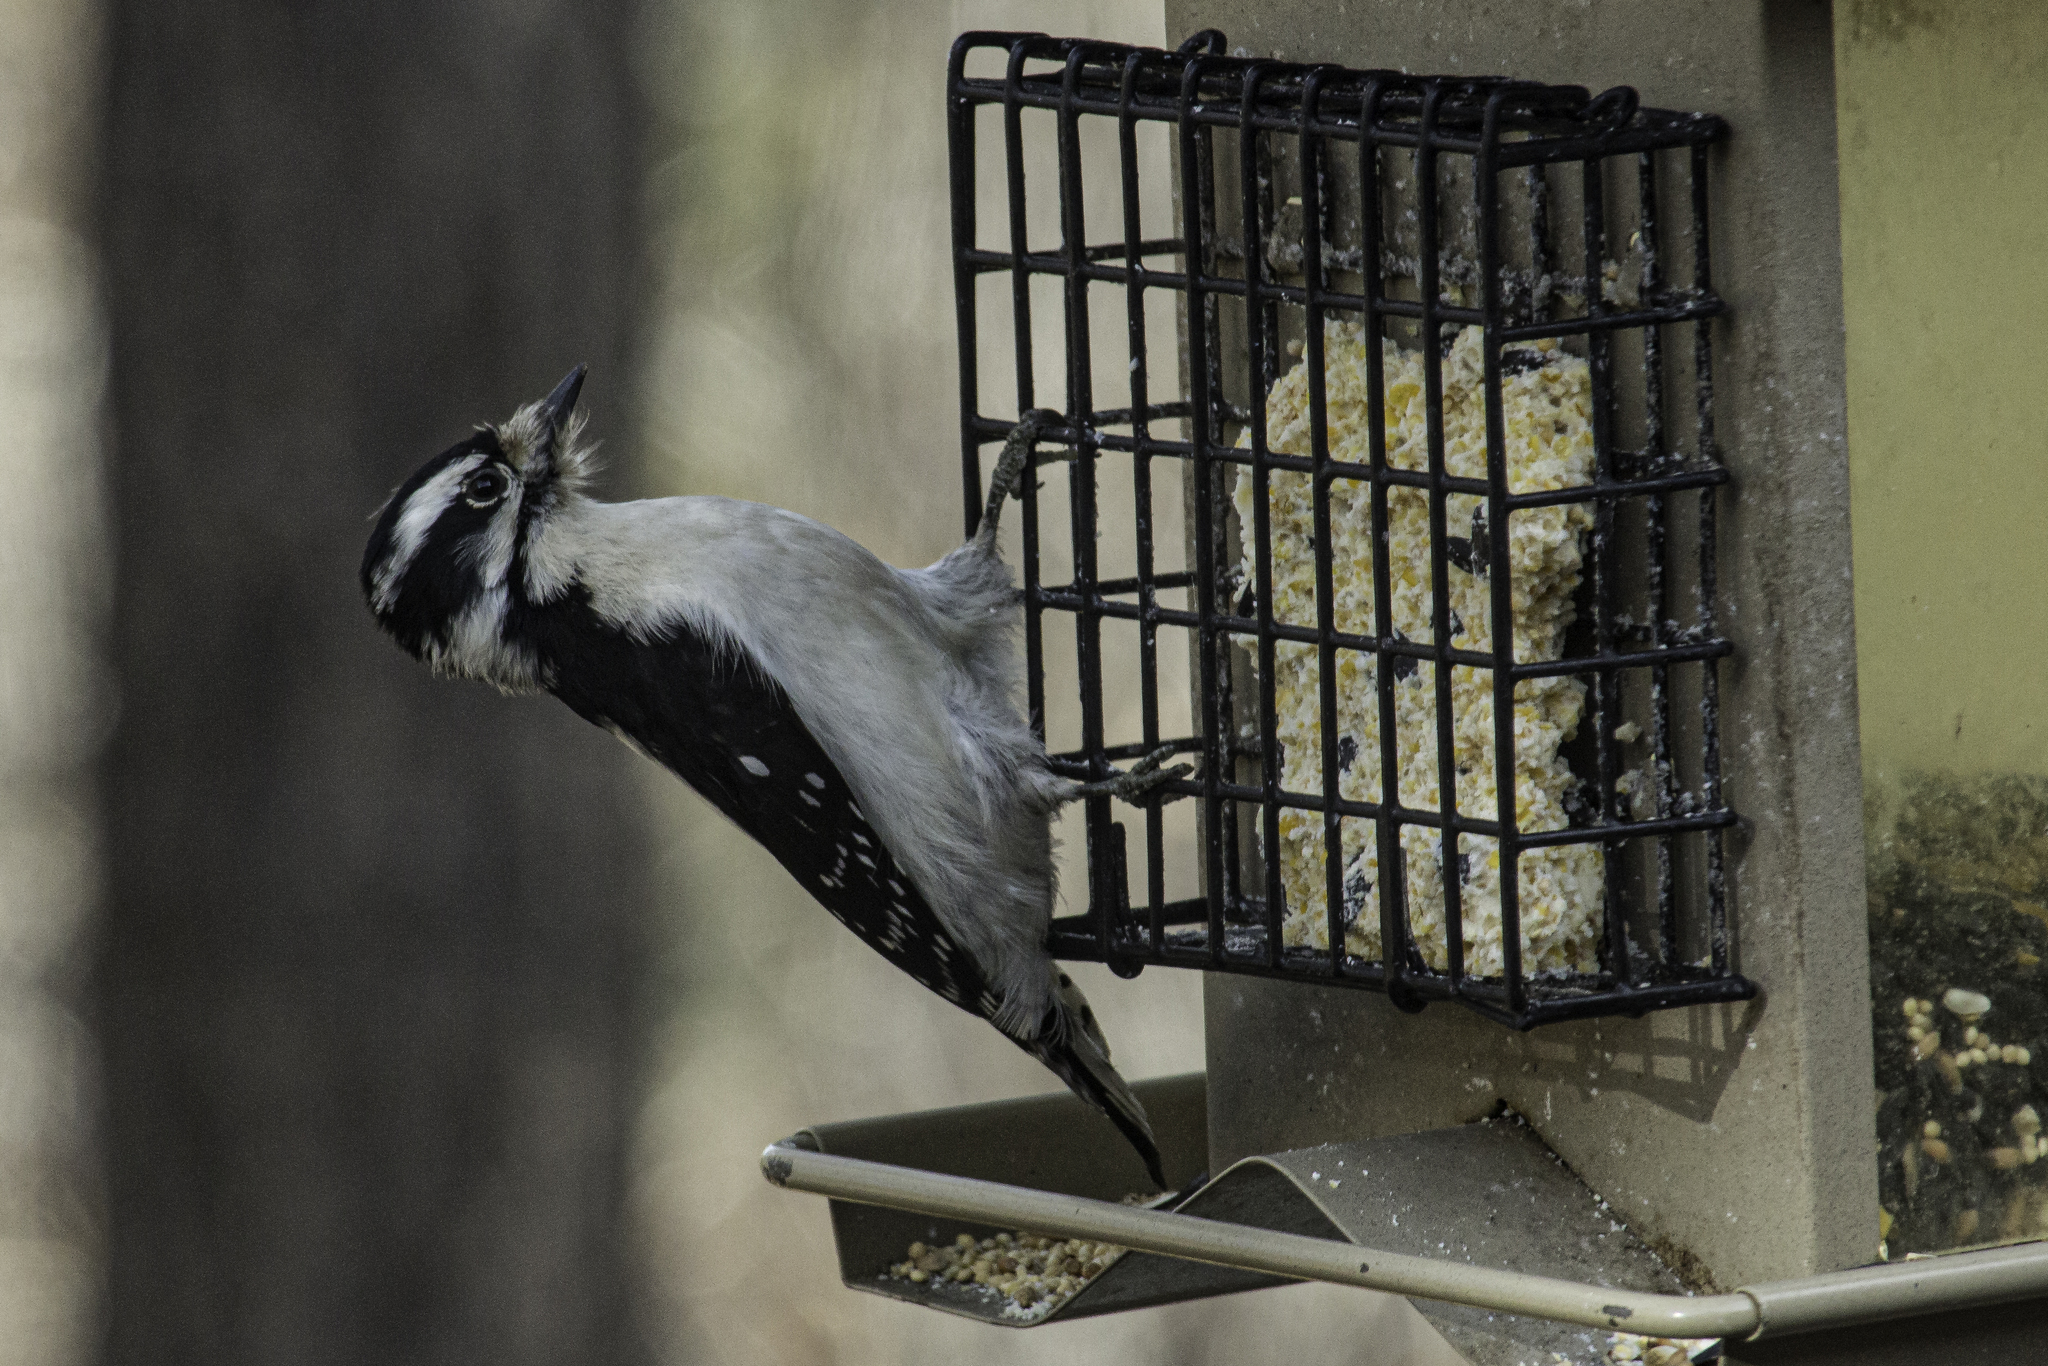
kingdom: Animalia
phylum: Chordata
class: Aves
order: Piciformes
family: Picidae
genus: Dryobates
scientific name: Dryobates pubescens
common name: Downy woodpecker
